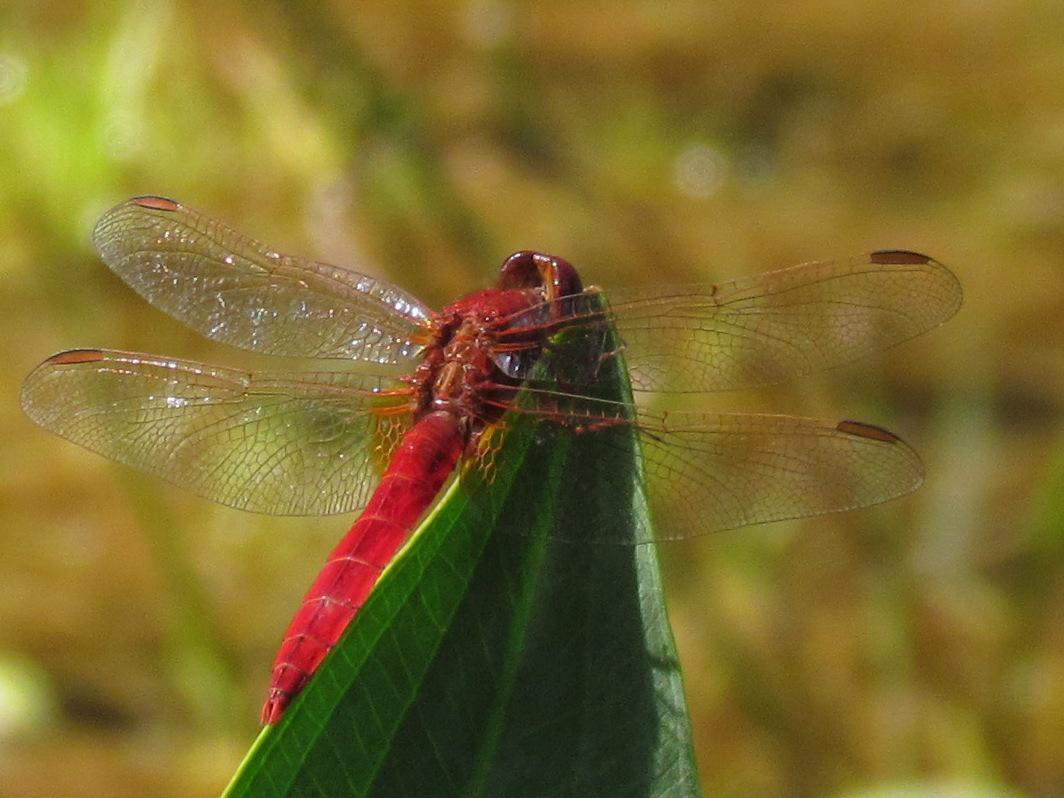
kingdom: Animalia
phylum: Arthropoda
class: Insecta
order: Odonata
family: Libellulidae
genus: Crocothemis
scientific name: Crocothemis erythraea
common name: Scarlet dragonfly
